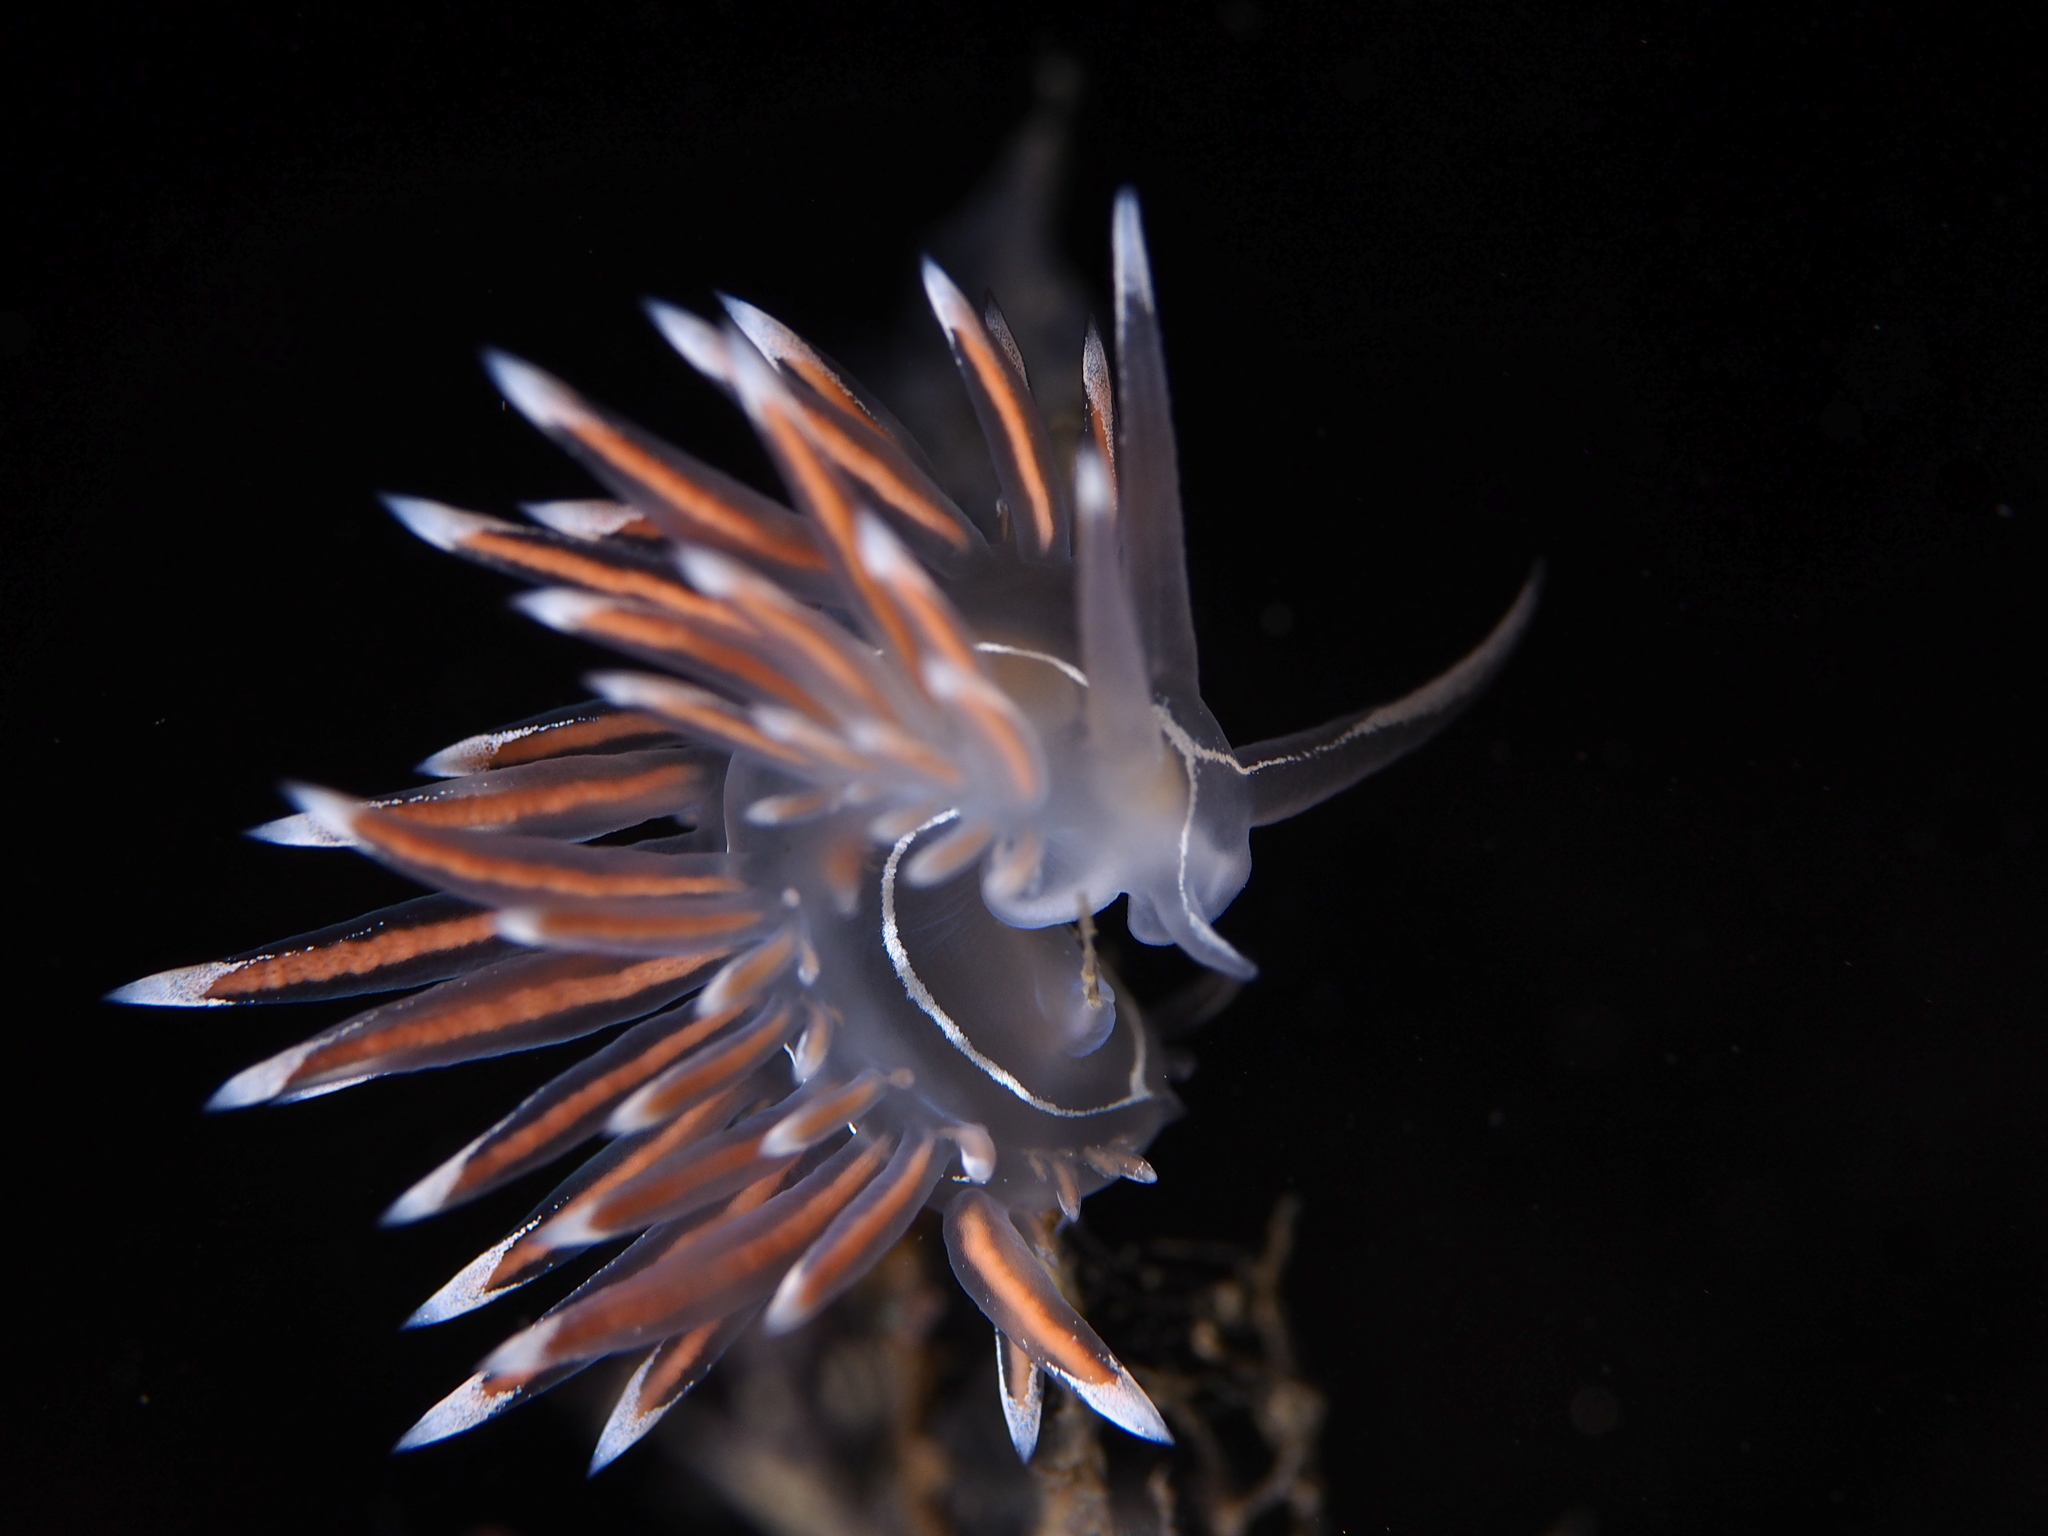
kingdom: Animalia
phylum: Mollusca
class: Gastropoda
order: Nudibranchia
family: Coryphellidae
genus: Coryphella
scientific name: Coryphella lineata
